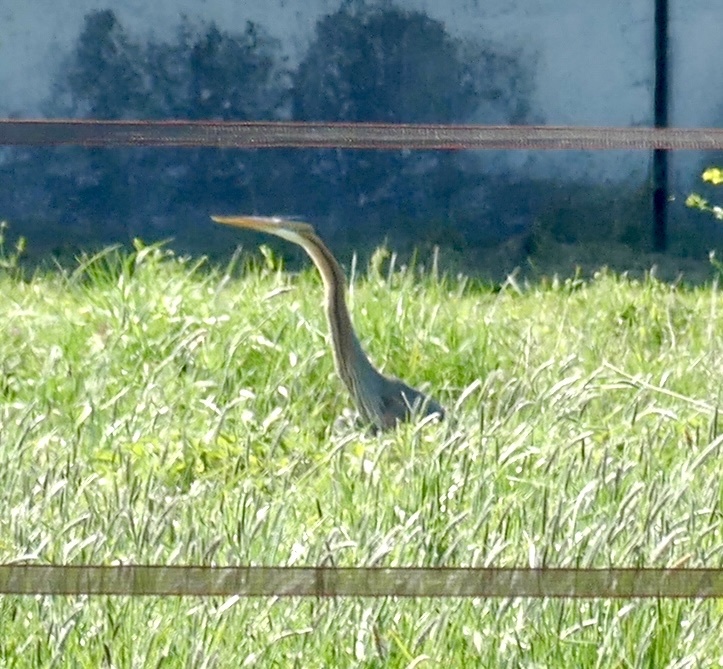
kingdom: Animalia
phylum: Chordata
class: Aves
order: Pelecaniformes
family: Ardeidae
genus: Ardea
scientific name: Ardea purpurea
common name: Purple heron
